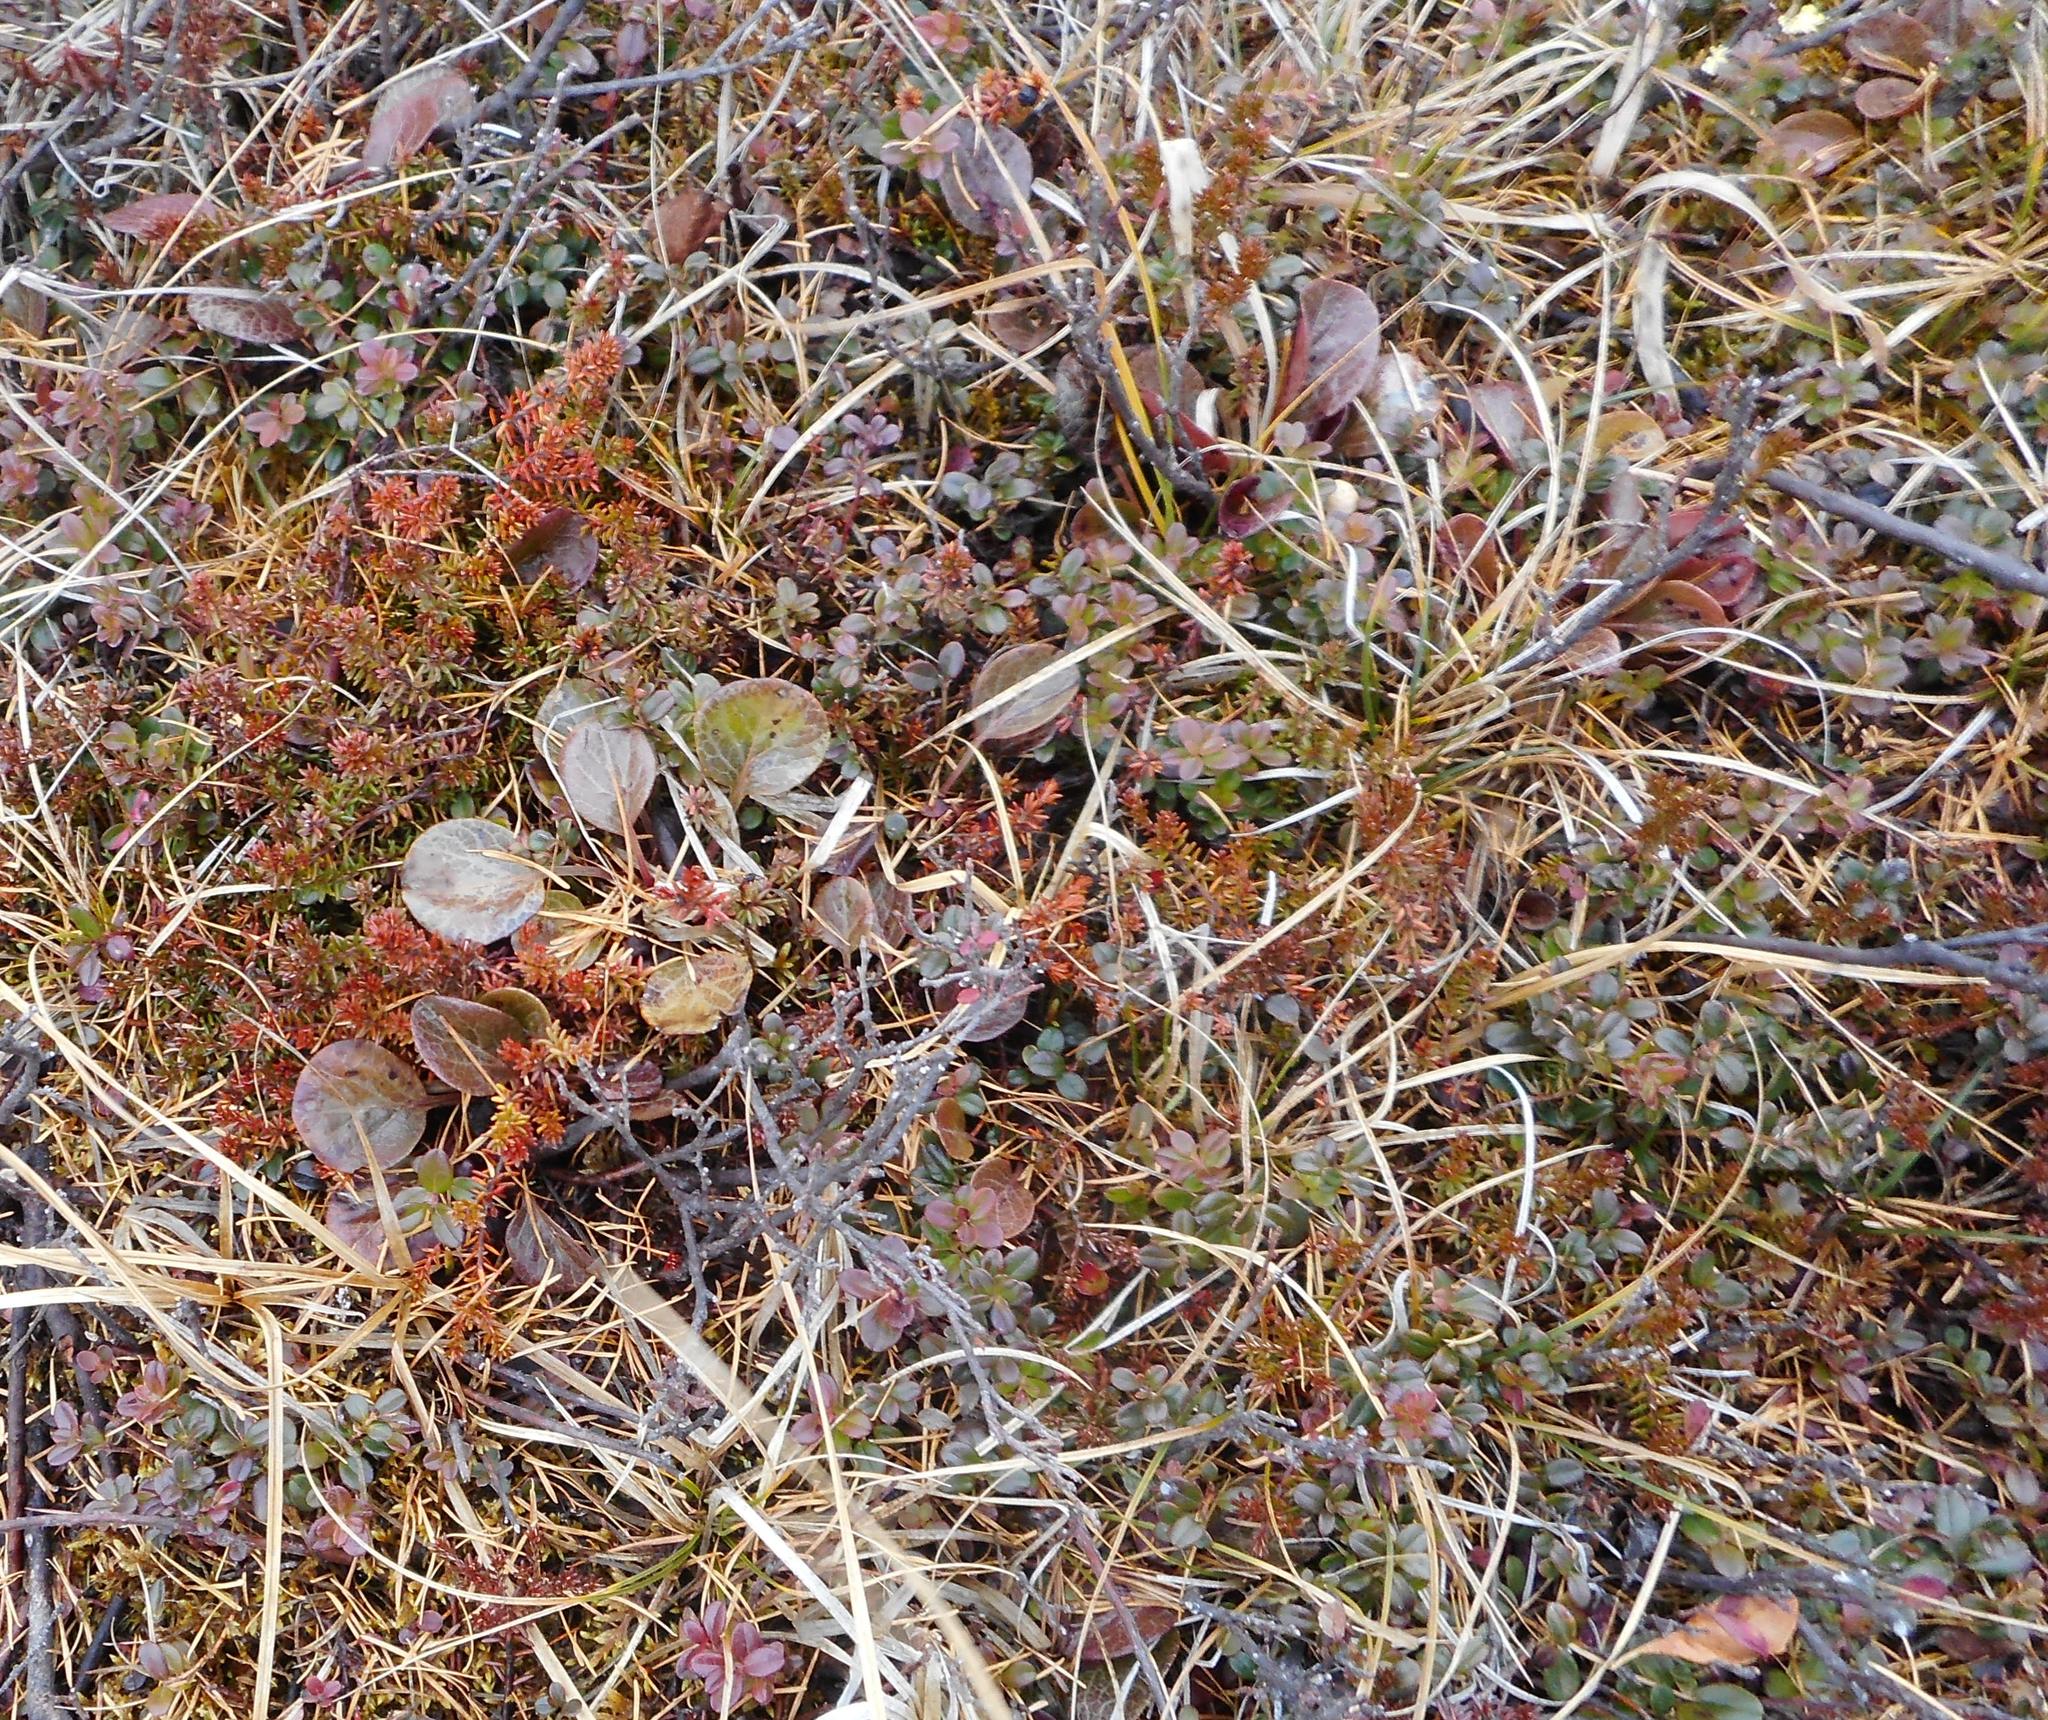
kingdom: Plantae
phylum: Tracheophyta
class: Magnoliopsida
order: Ericales
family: Ericaceae
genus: Pyrola
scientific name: Pyrola asarifolia
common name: Bog wintergreen
